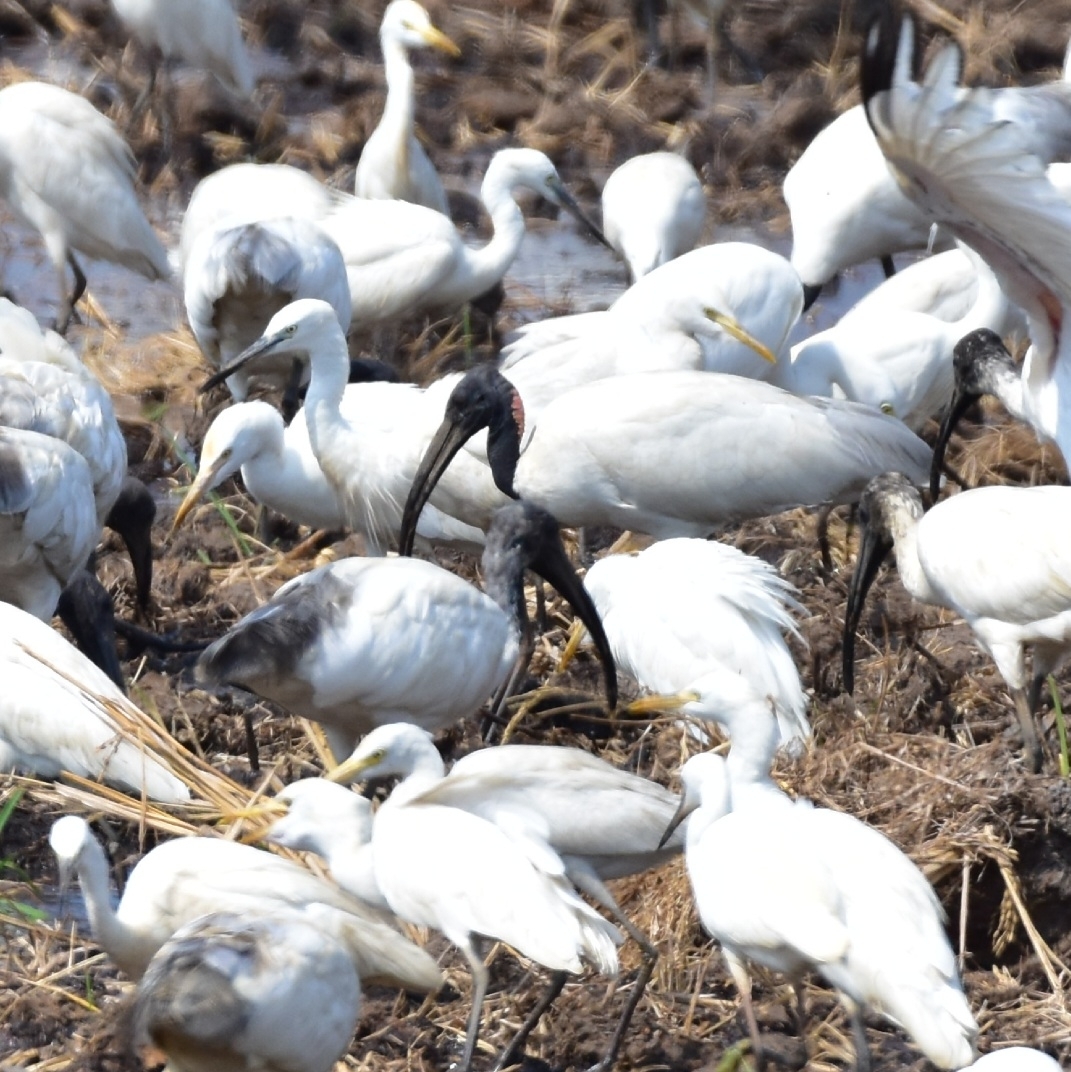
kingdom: Animalia
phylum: Chordata
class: Aves
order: Pelecaniformes
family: Threskiornithidae
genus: Threskiornis
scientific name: Threskiornis melanocephalus
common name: Black-headed ibis
